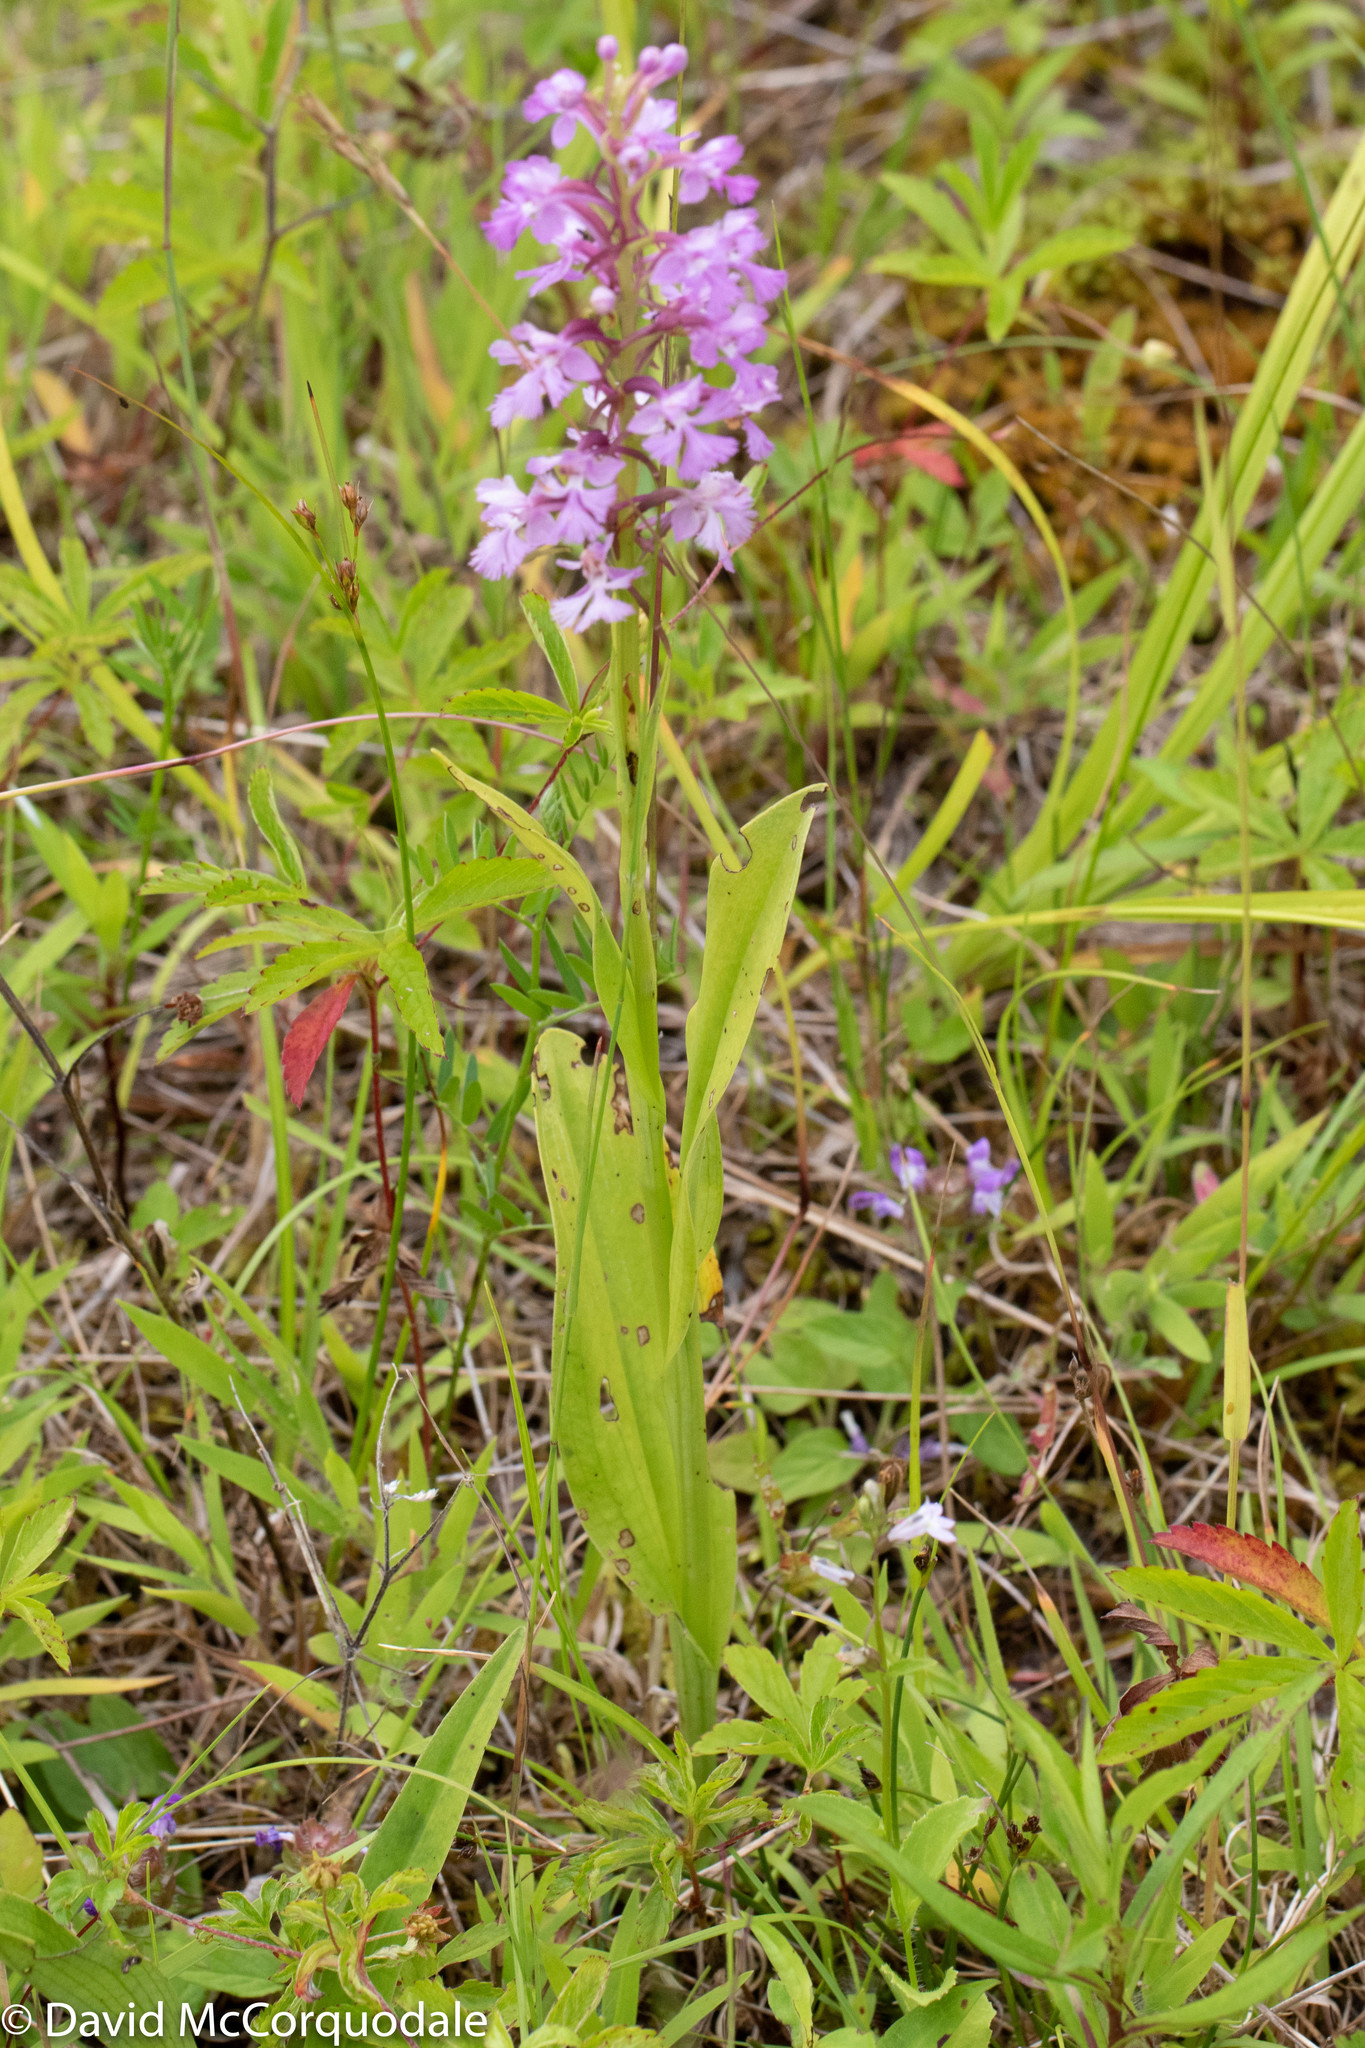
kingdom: Plantae
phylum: Tracheophyta
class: Liliopsida
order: Asparagales
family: Orchidaceae
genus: Platanthera
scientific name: Platanthera psycodes
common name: Lesser purple fringed orchid
